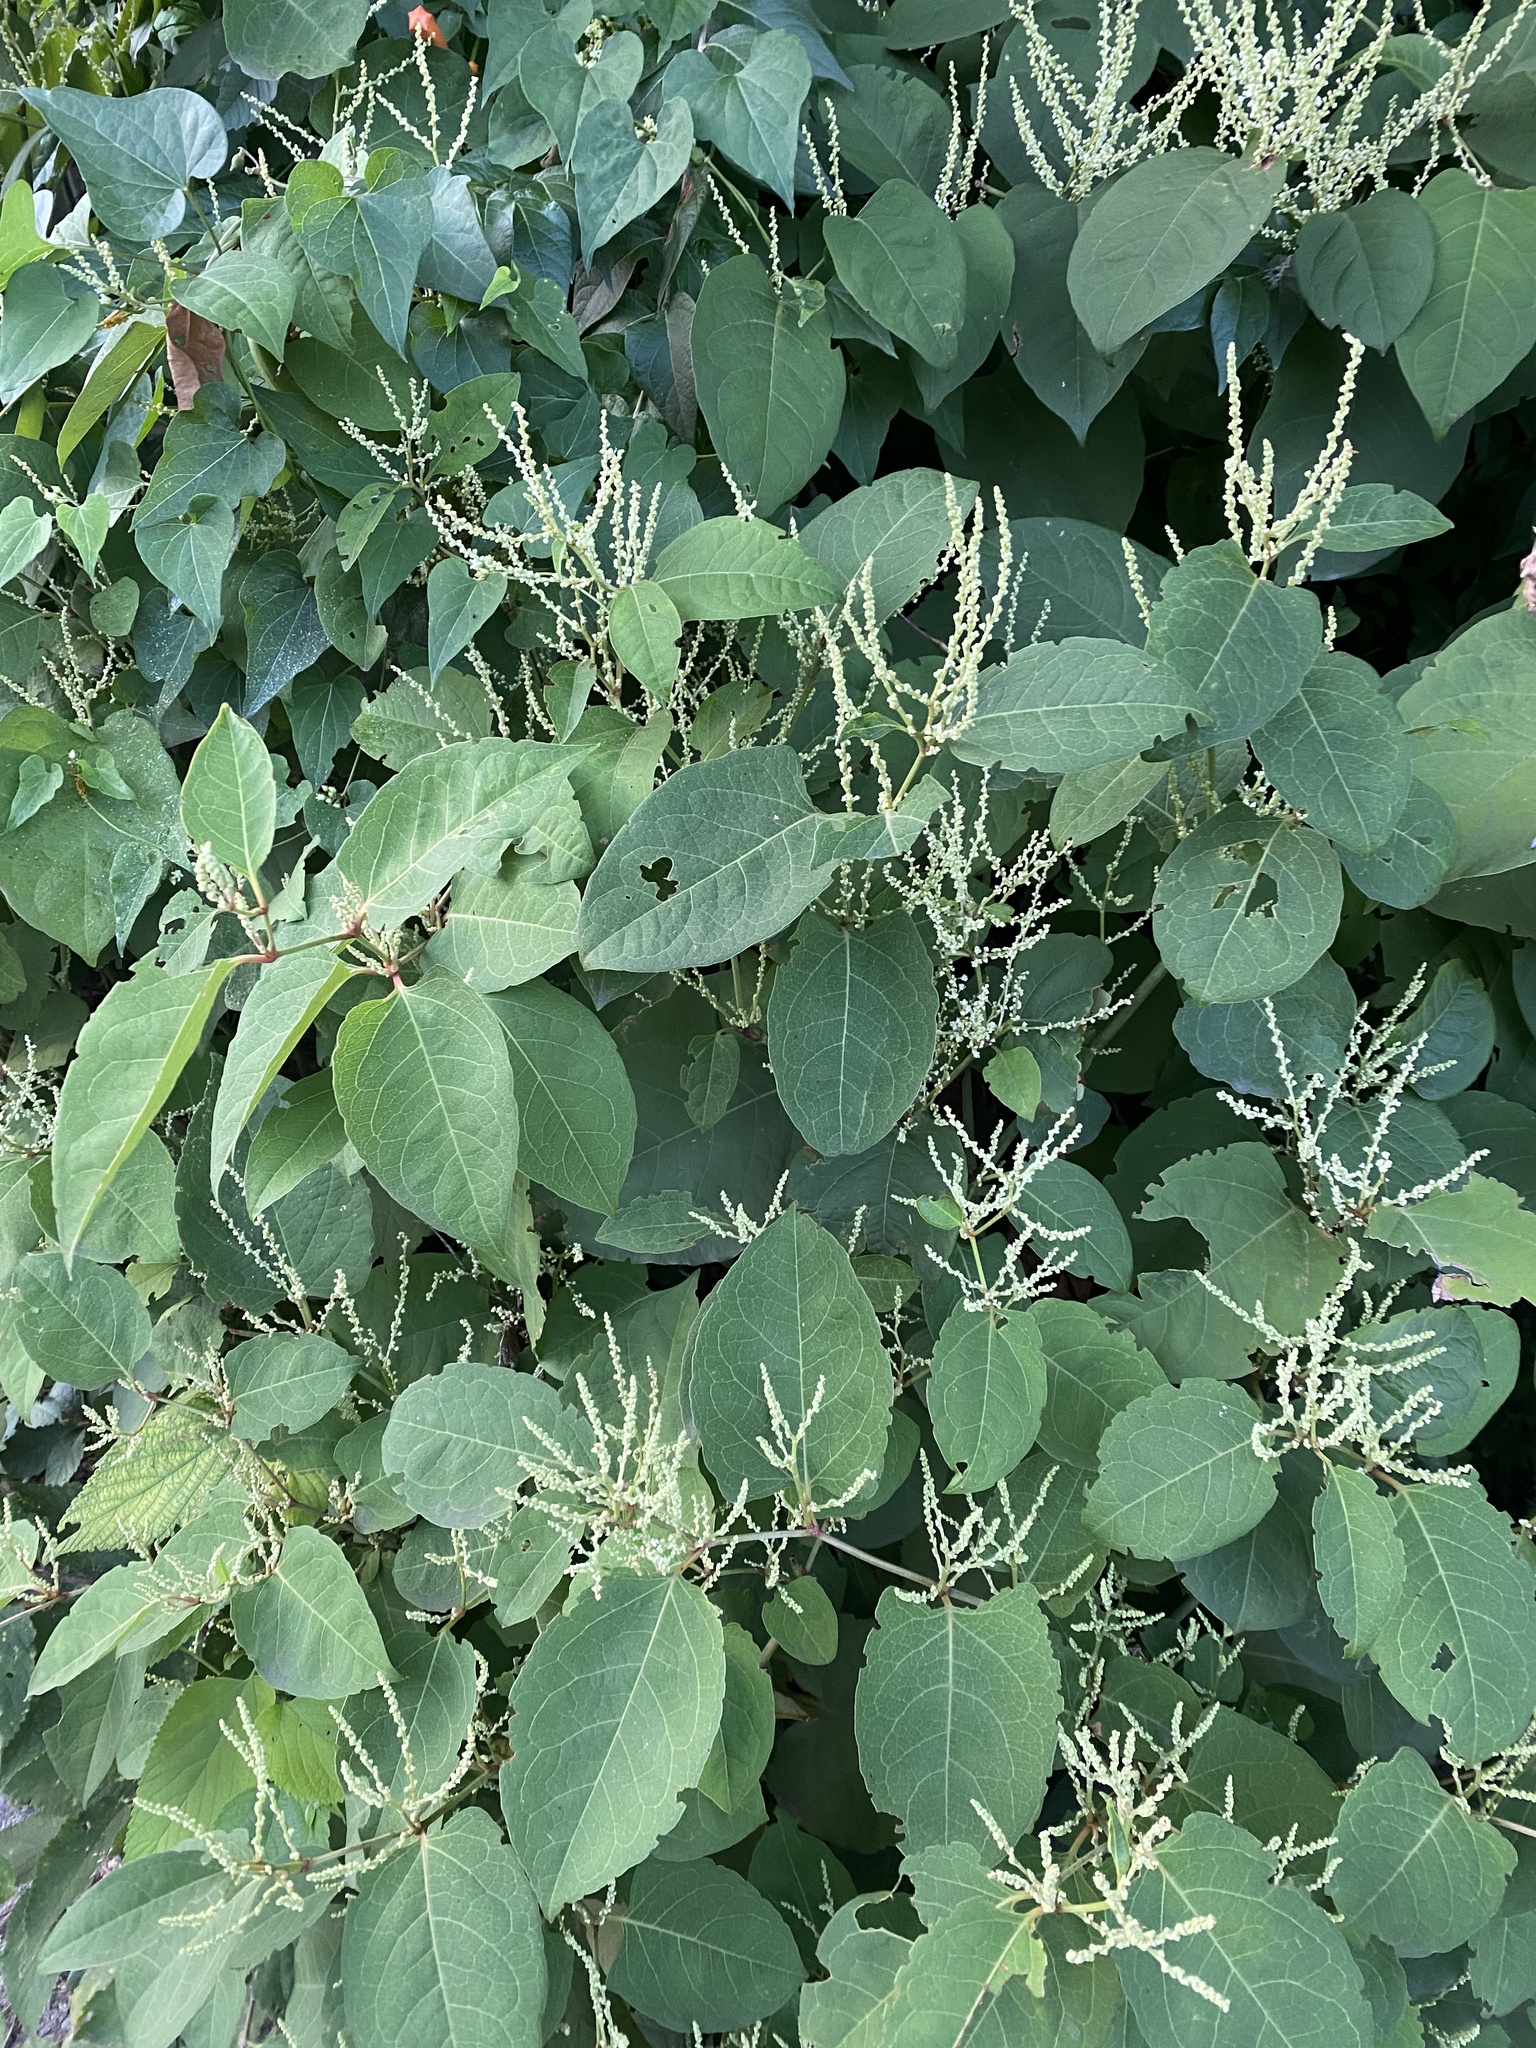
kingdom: Plantae
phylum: Tracheophyta
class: Magnoliopsida
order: Caryophyllales
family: Polygonaceae
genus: Reynoutria
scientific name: Reynoutria japonica
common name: Japanese knotweed
